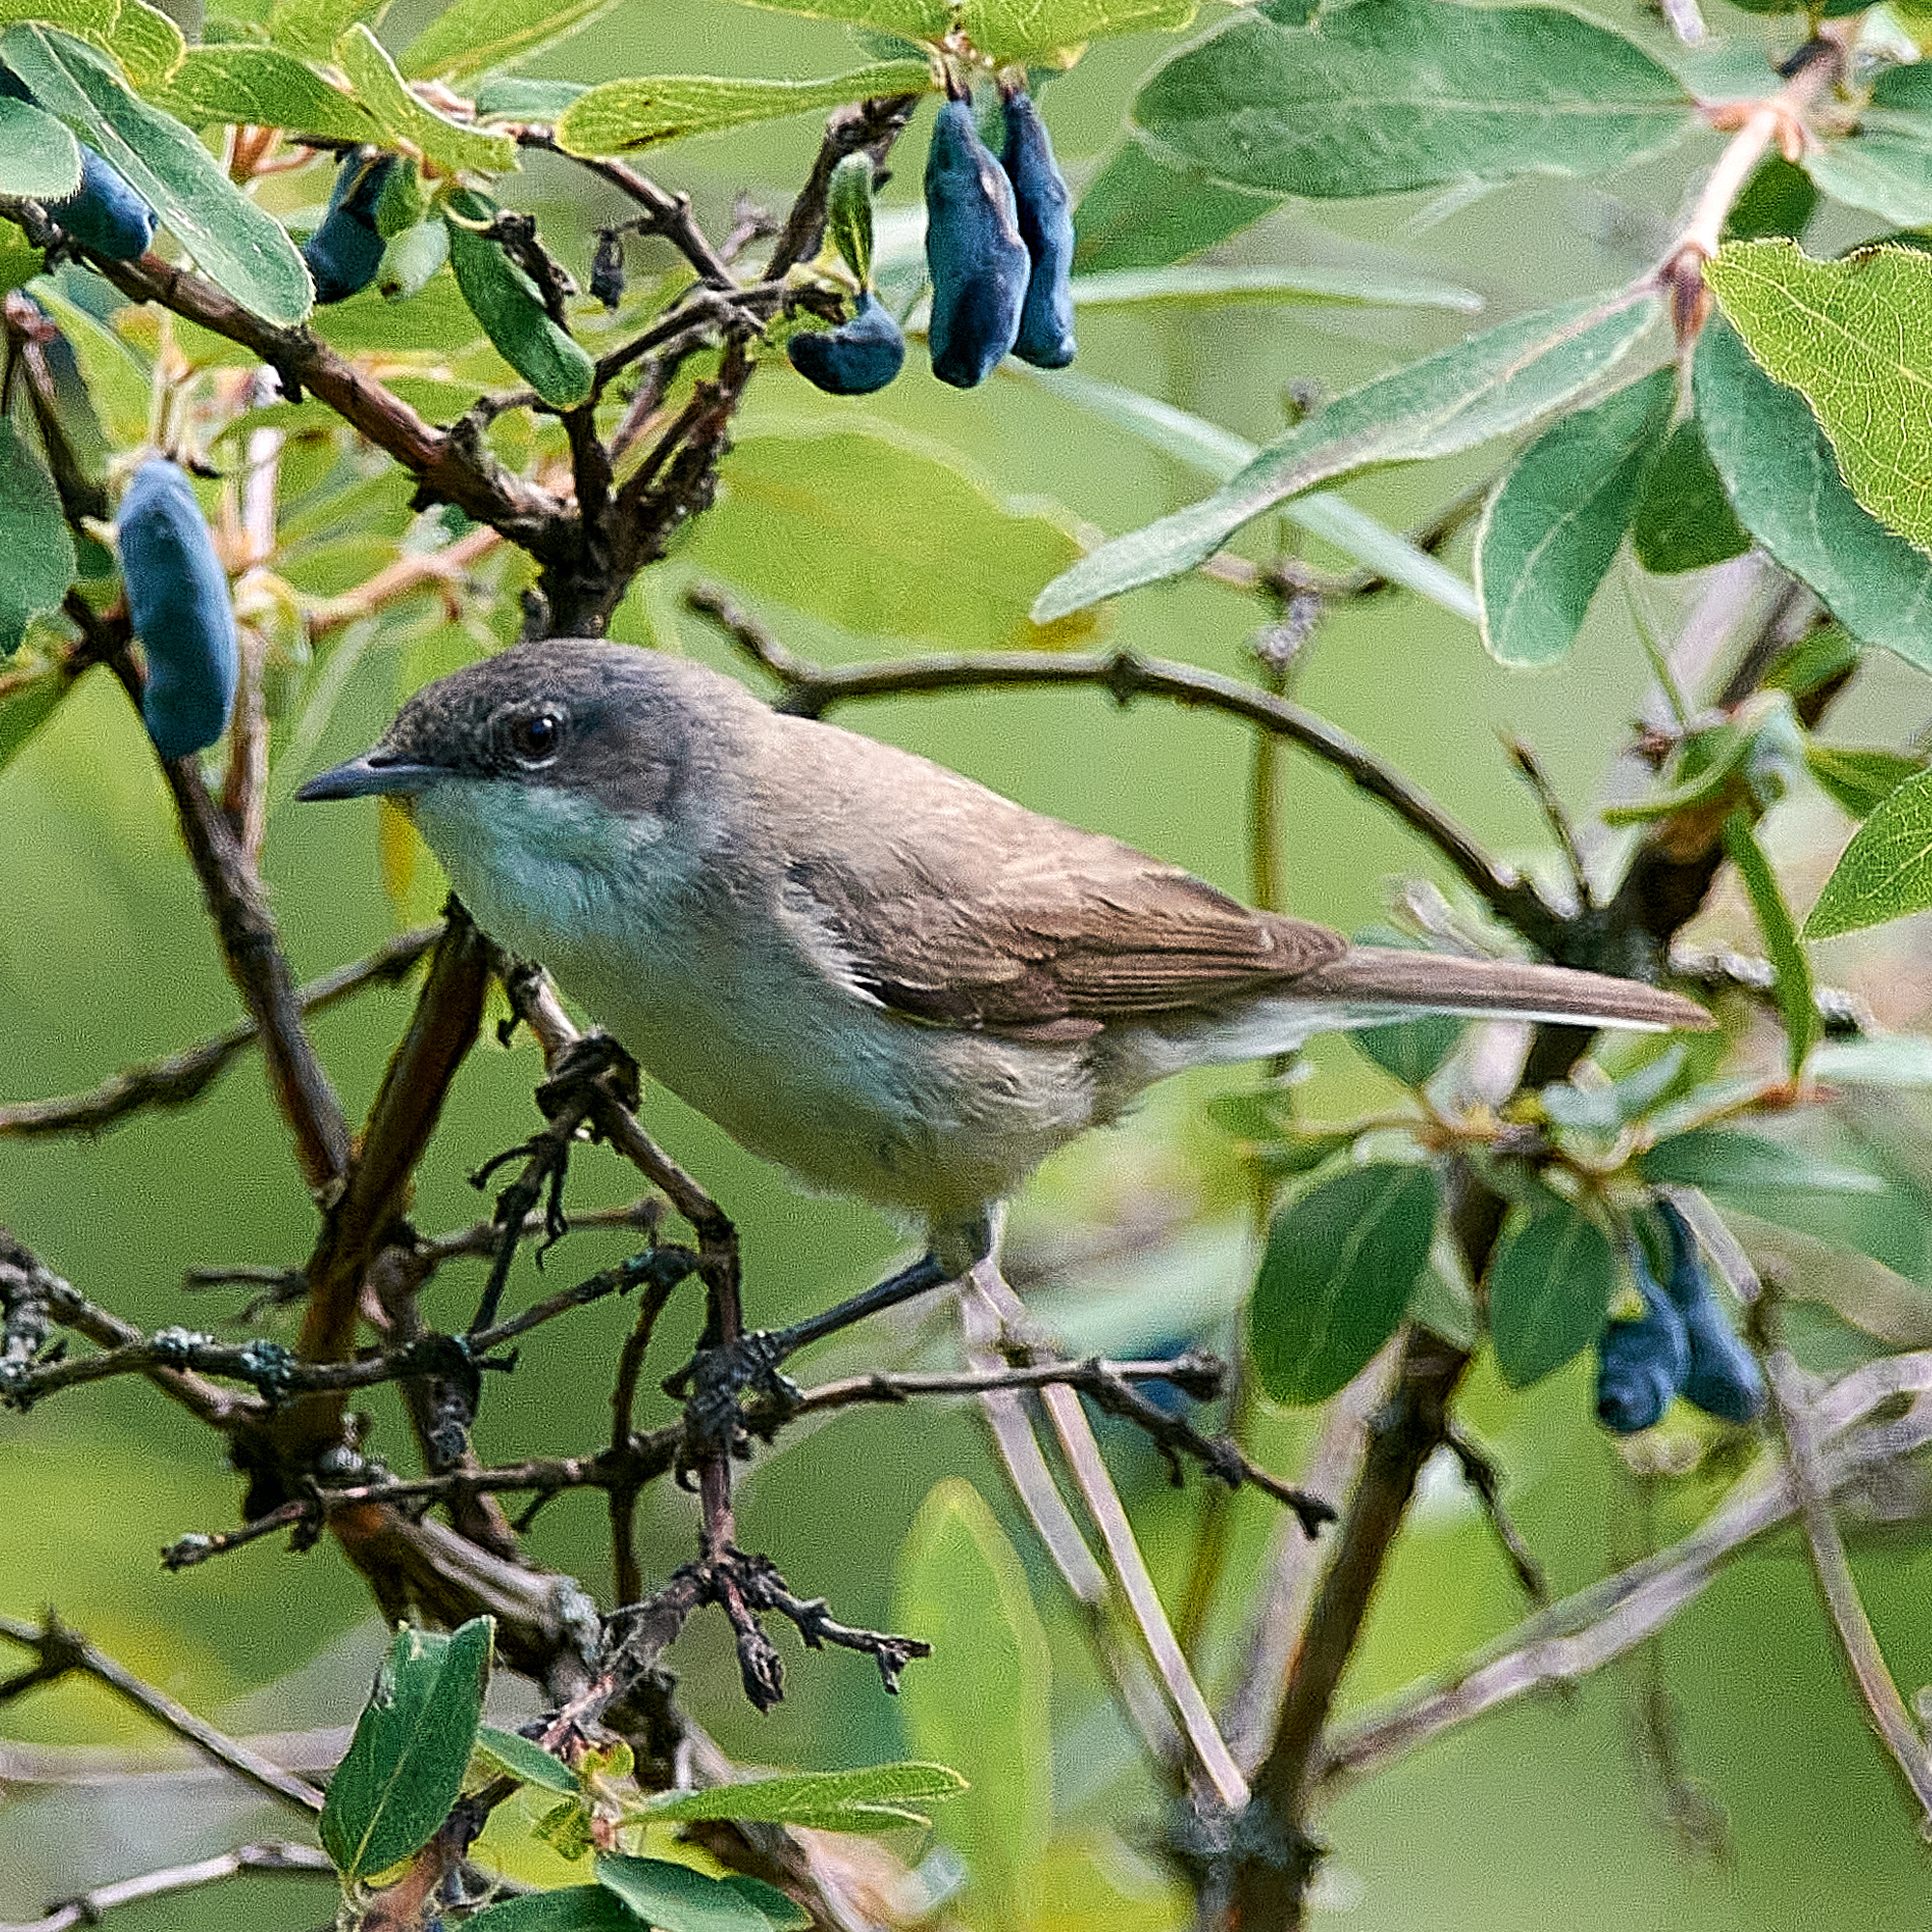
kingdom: Animalia
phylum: Chordata
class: Aves
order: Passeriformes
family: Sylviidae
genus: Sylvia
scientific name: Sylvia curruca
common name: Lesser whitethroat
